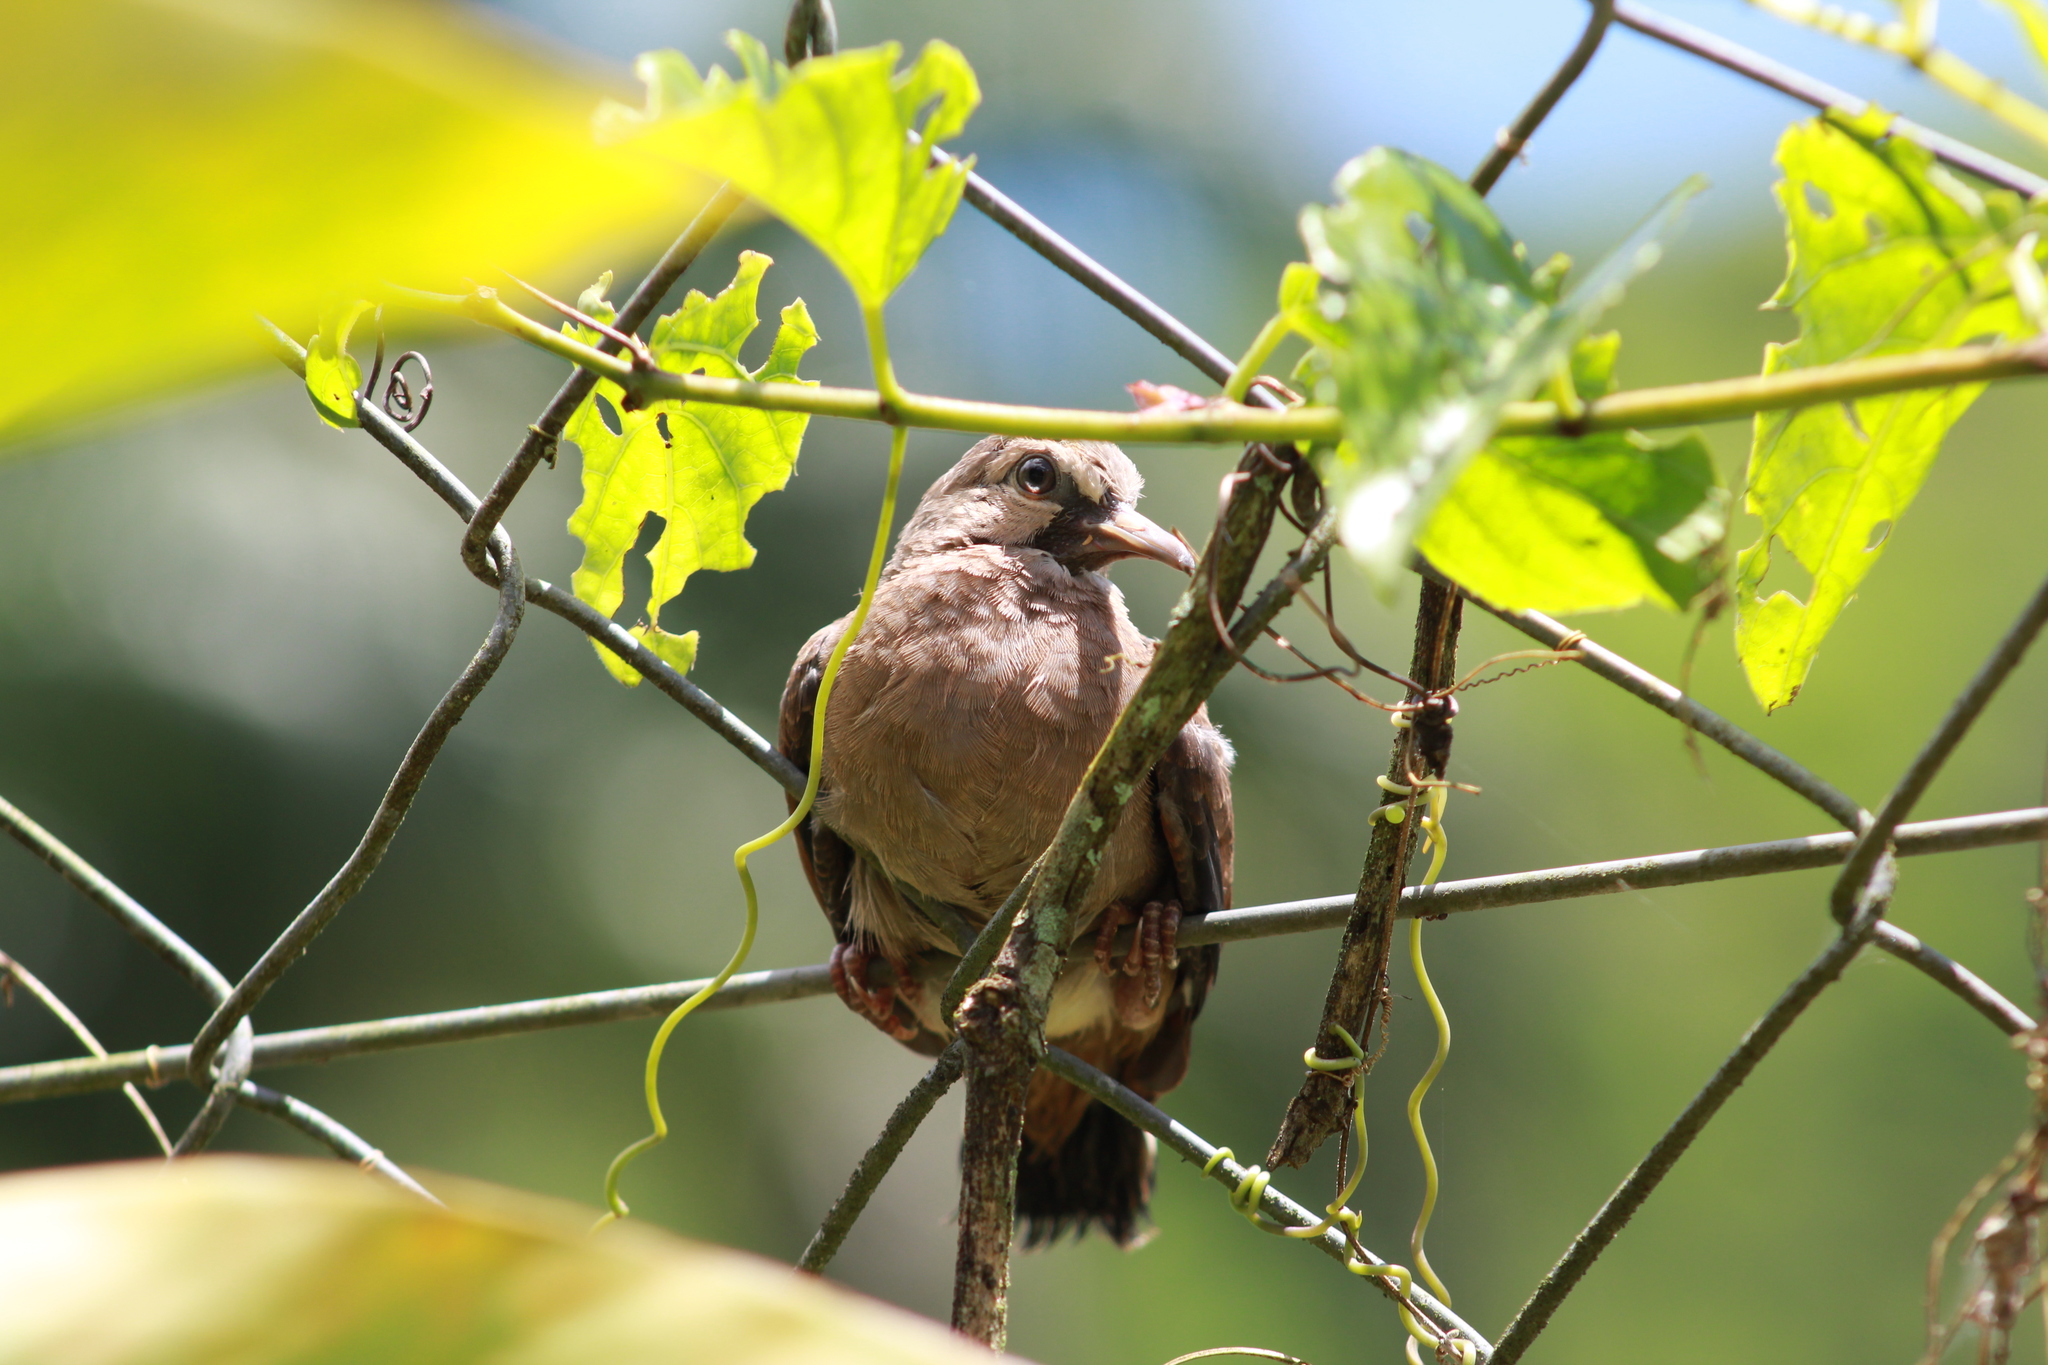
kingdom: Animalia
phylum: Chordata
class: Aves
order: Columbiformes
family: Columbidae
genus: Columbina
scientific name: Columbina talpacoti
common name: Ruddy ground dove
